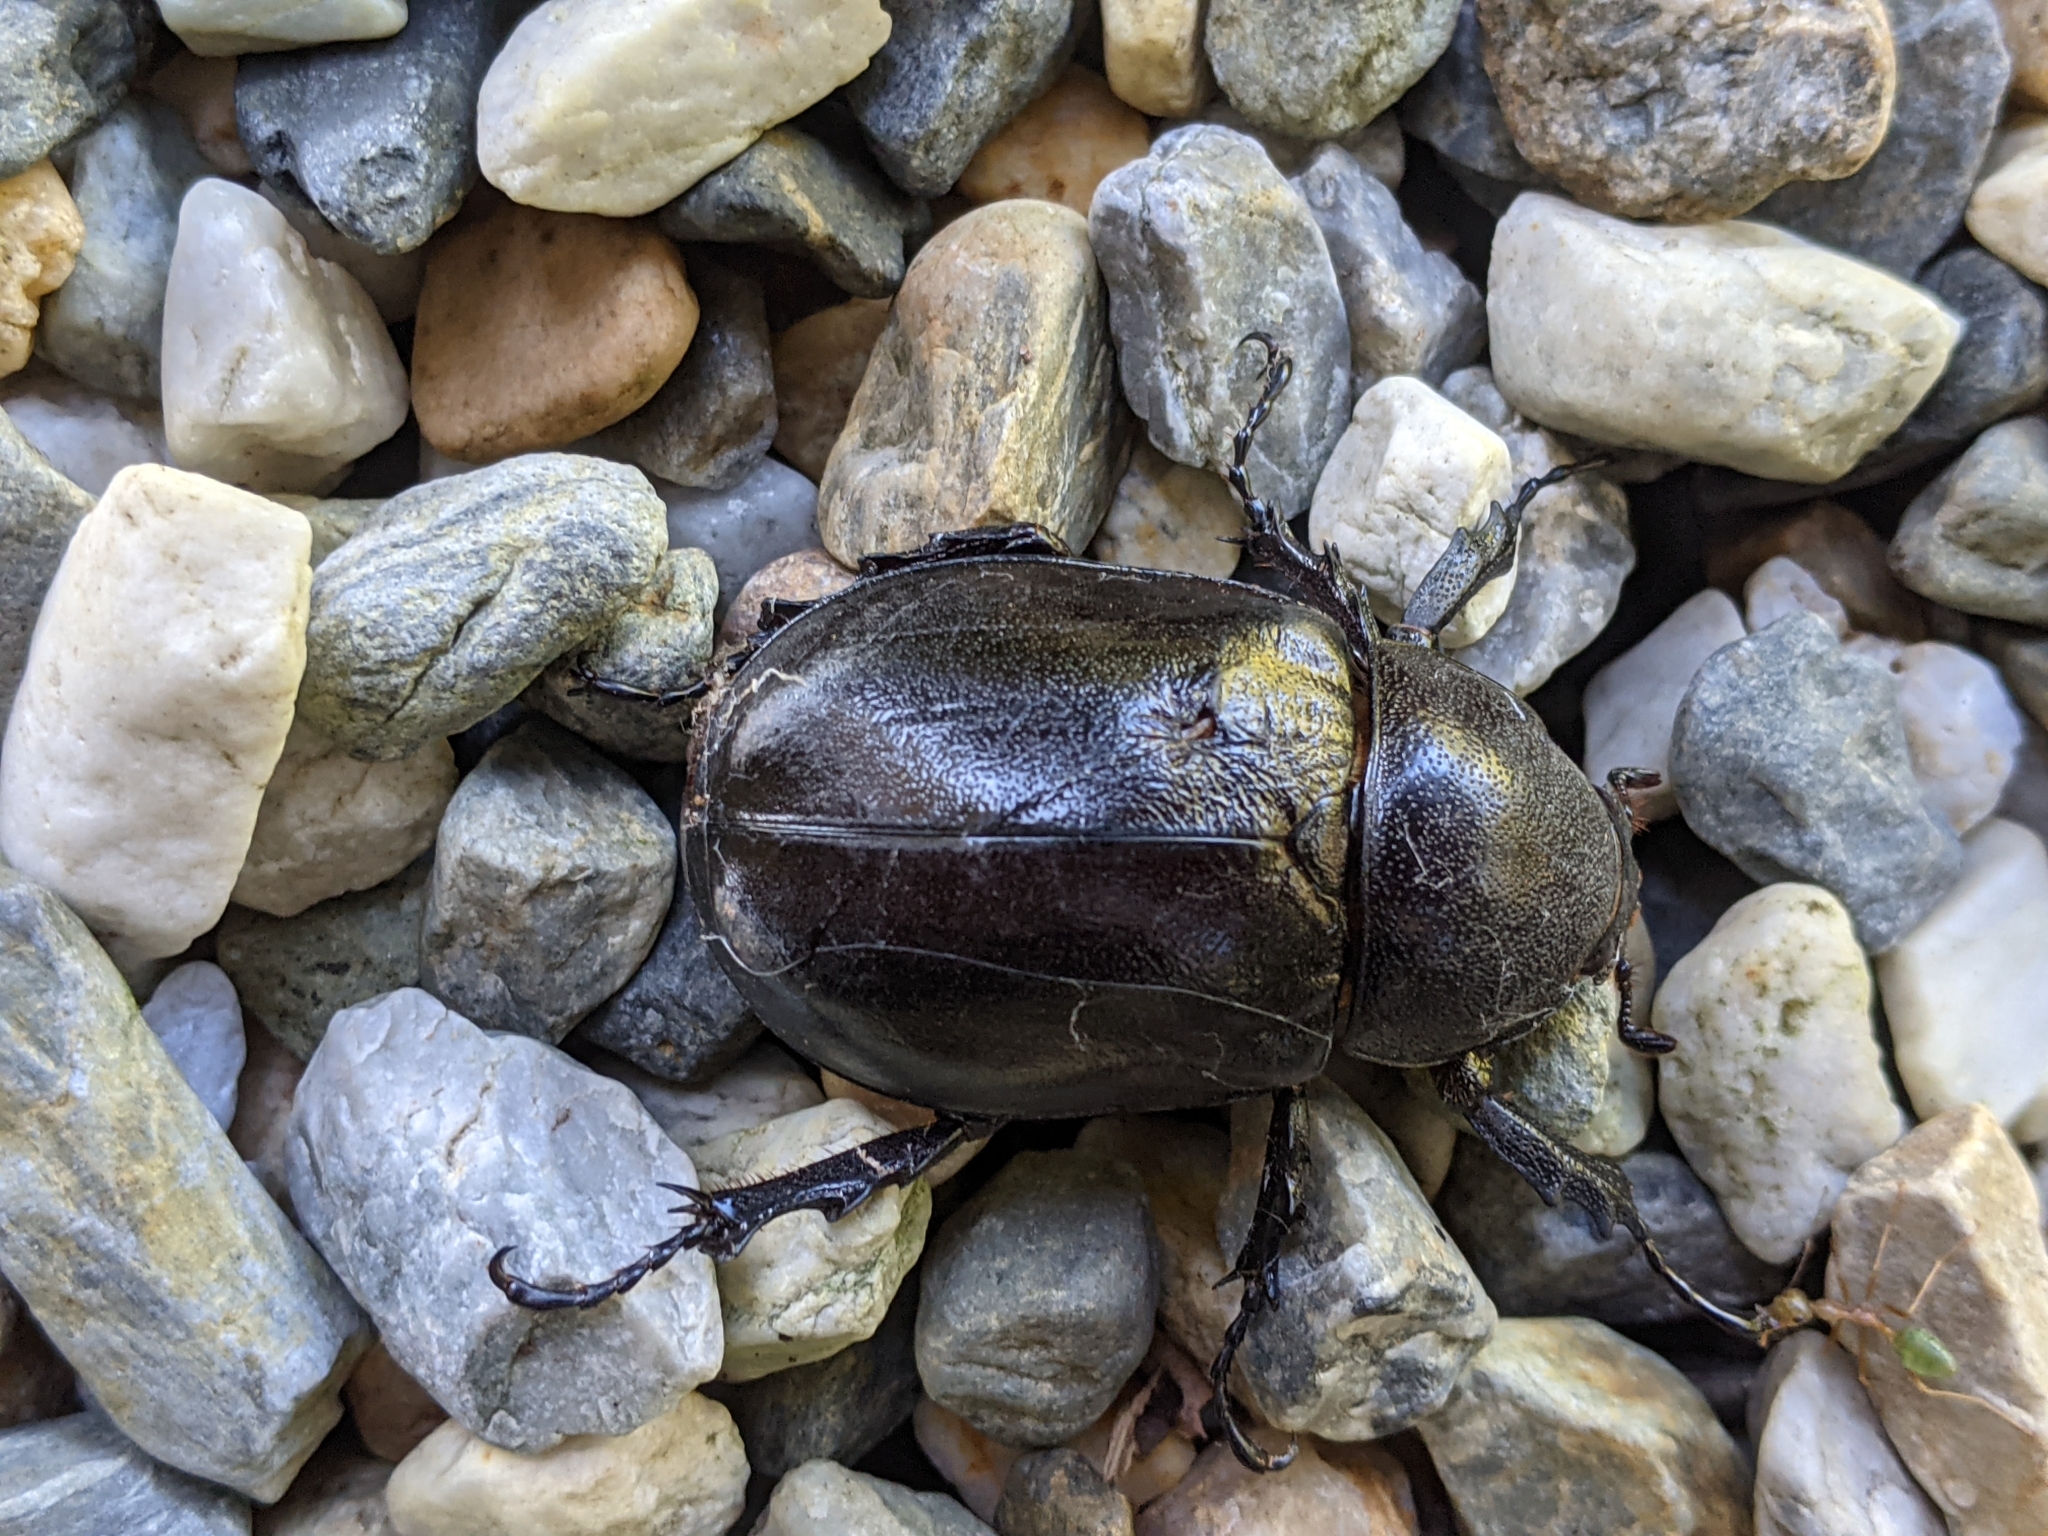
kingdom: Animalia
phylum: Arthropoda
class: Insecta
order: Coleoptera
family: Scarabaeidae
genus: Xylotrupes
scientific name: Xylotrupes australicus
